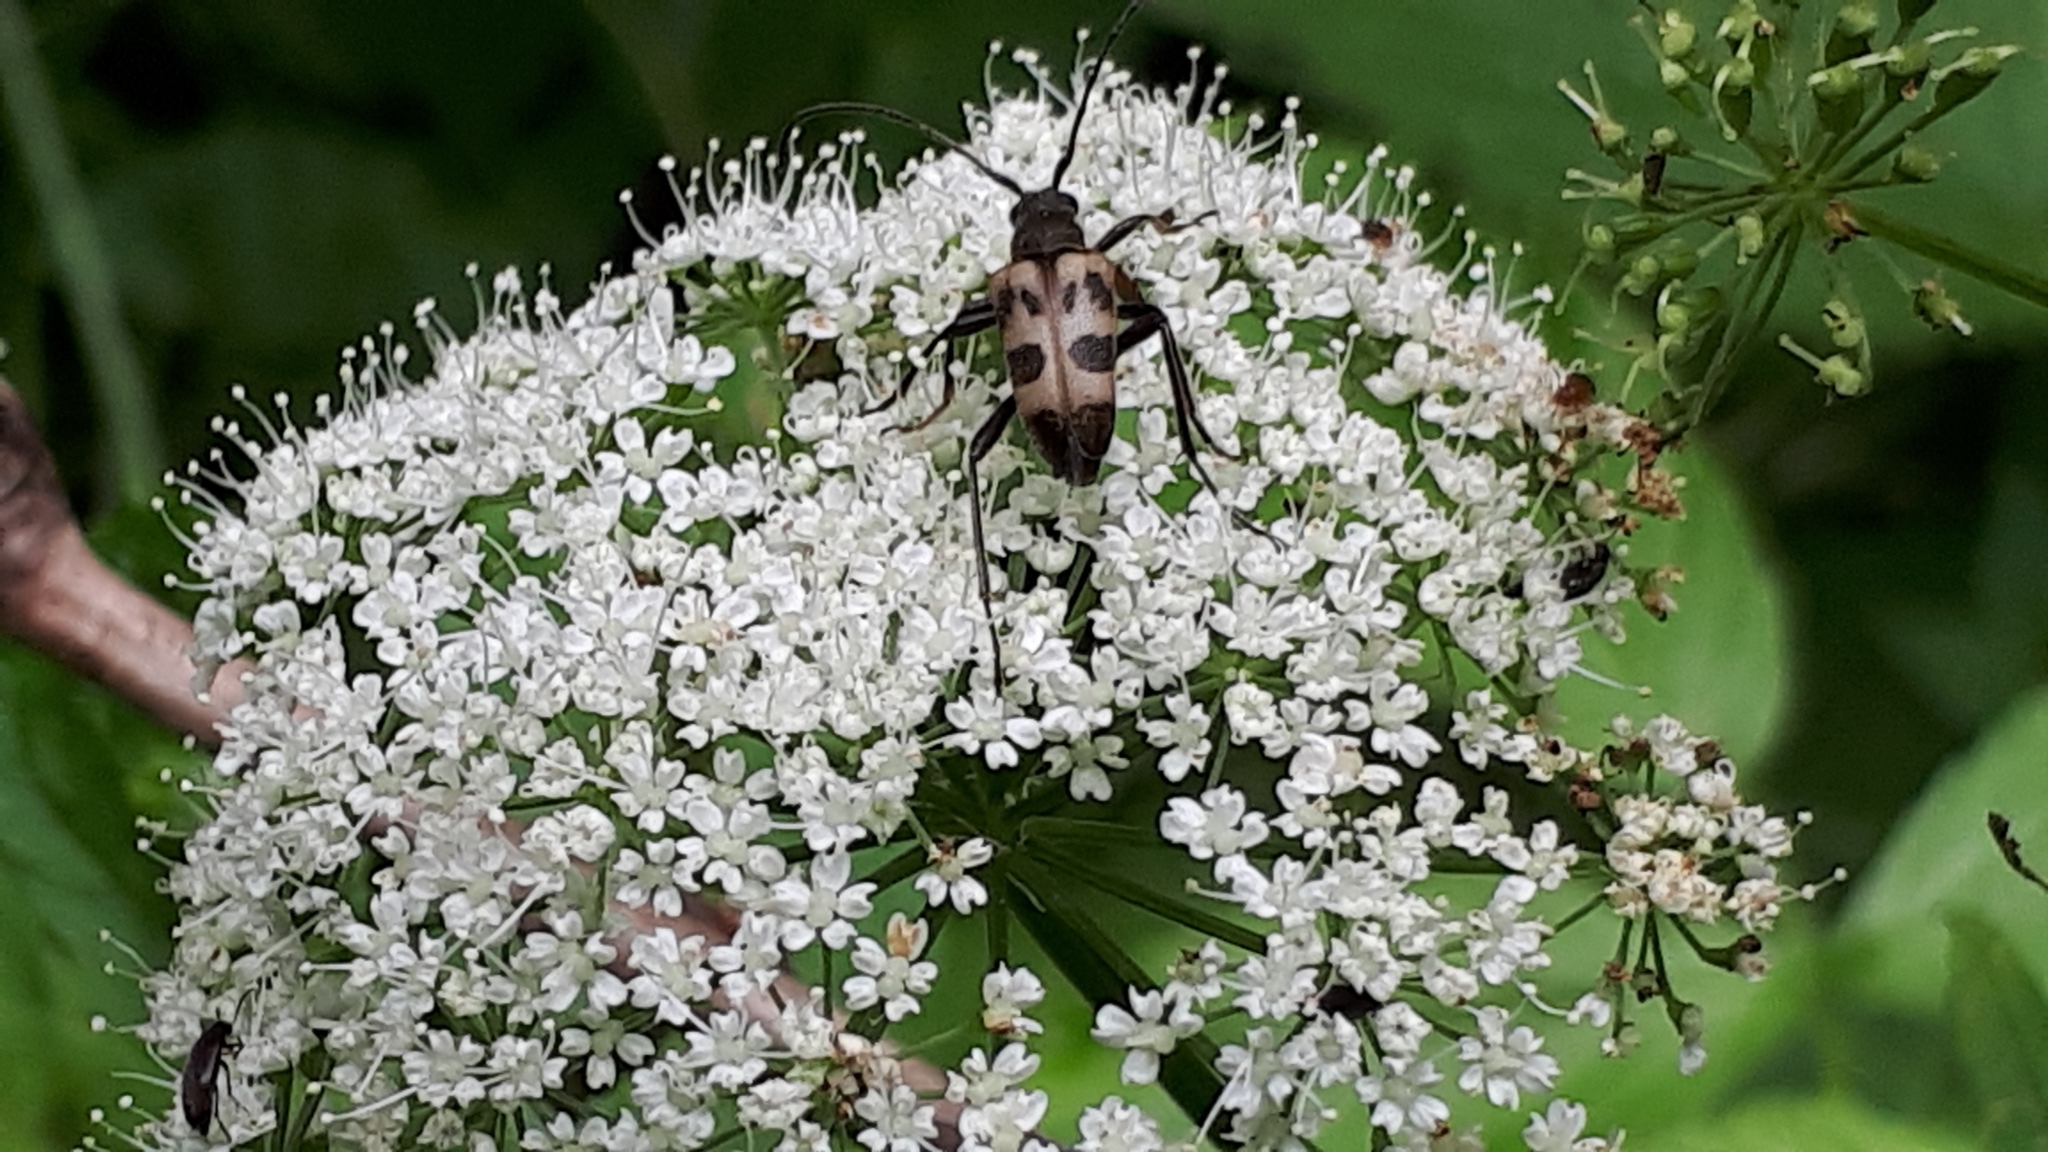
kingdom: Animalia
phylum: Arthropoda
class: Insecta
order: Coleoptera
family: Cerambycidae
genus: Pachytodes
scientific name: Pachytodes cerambyciformis
